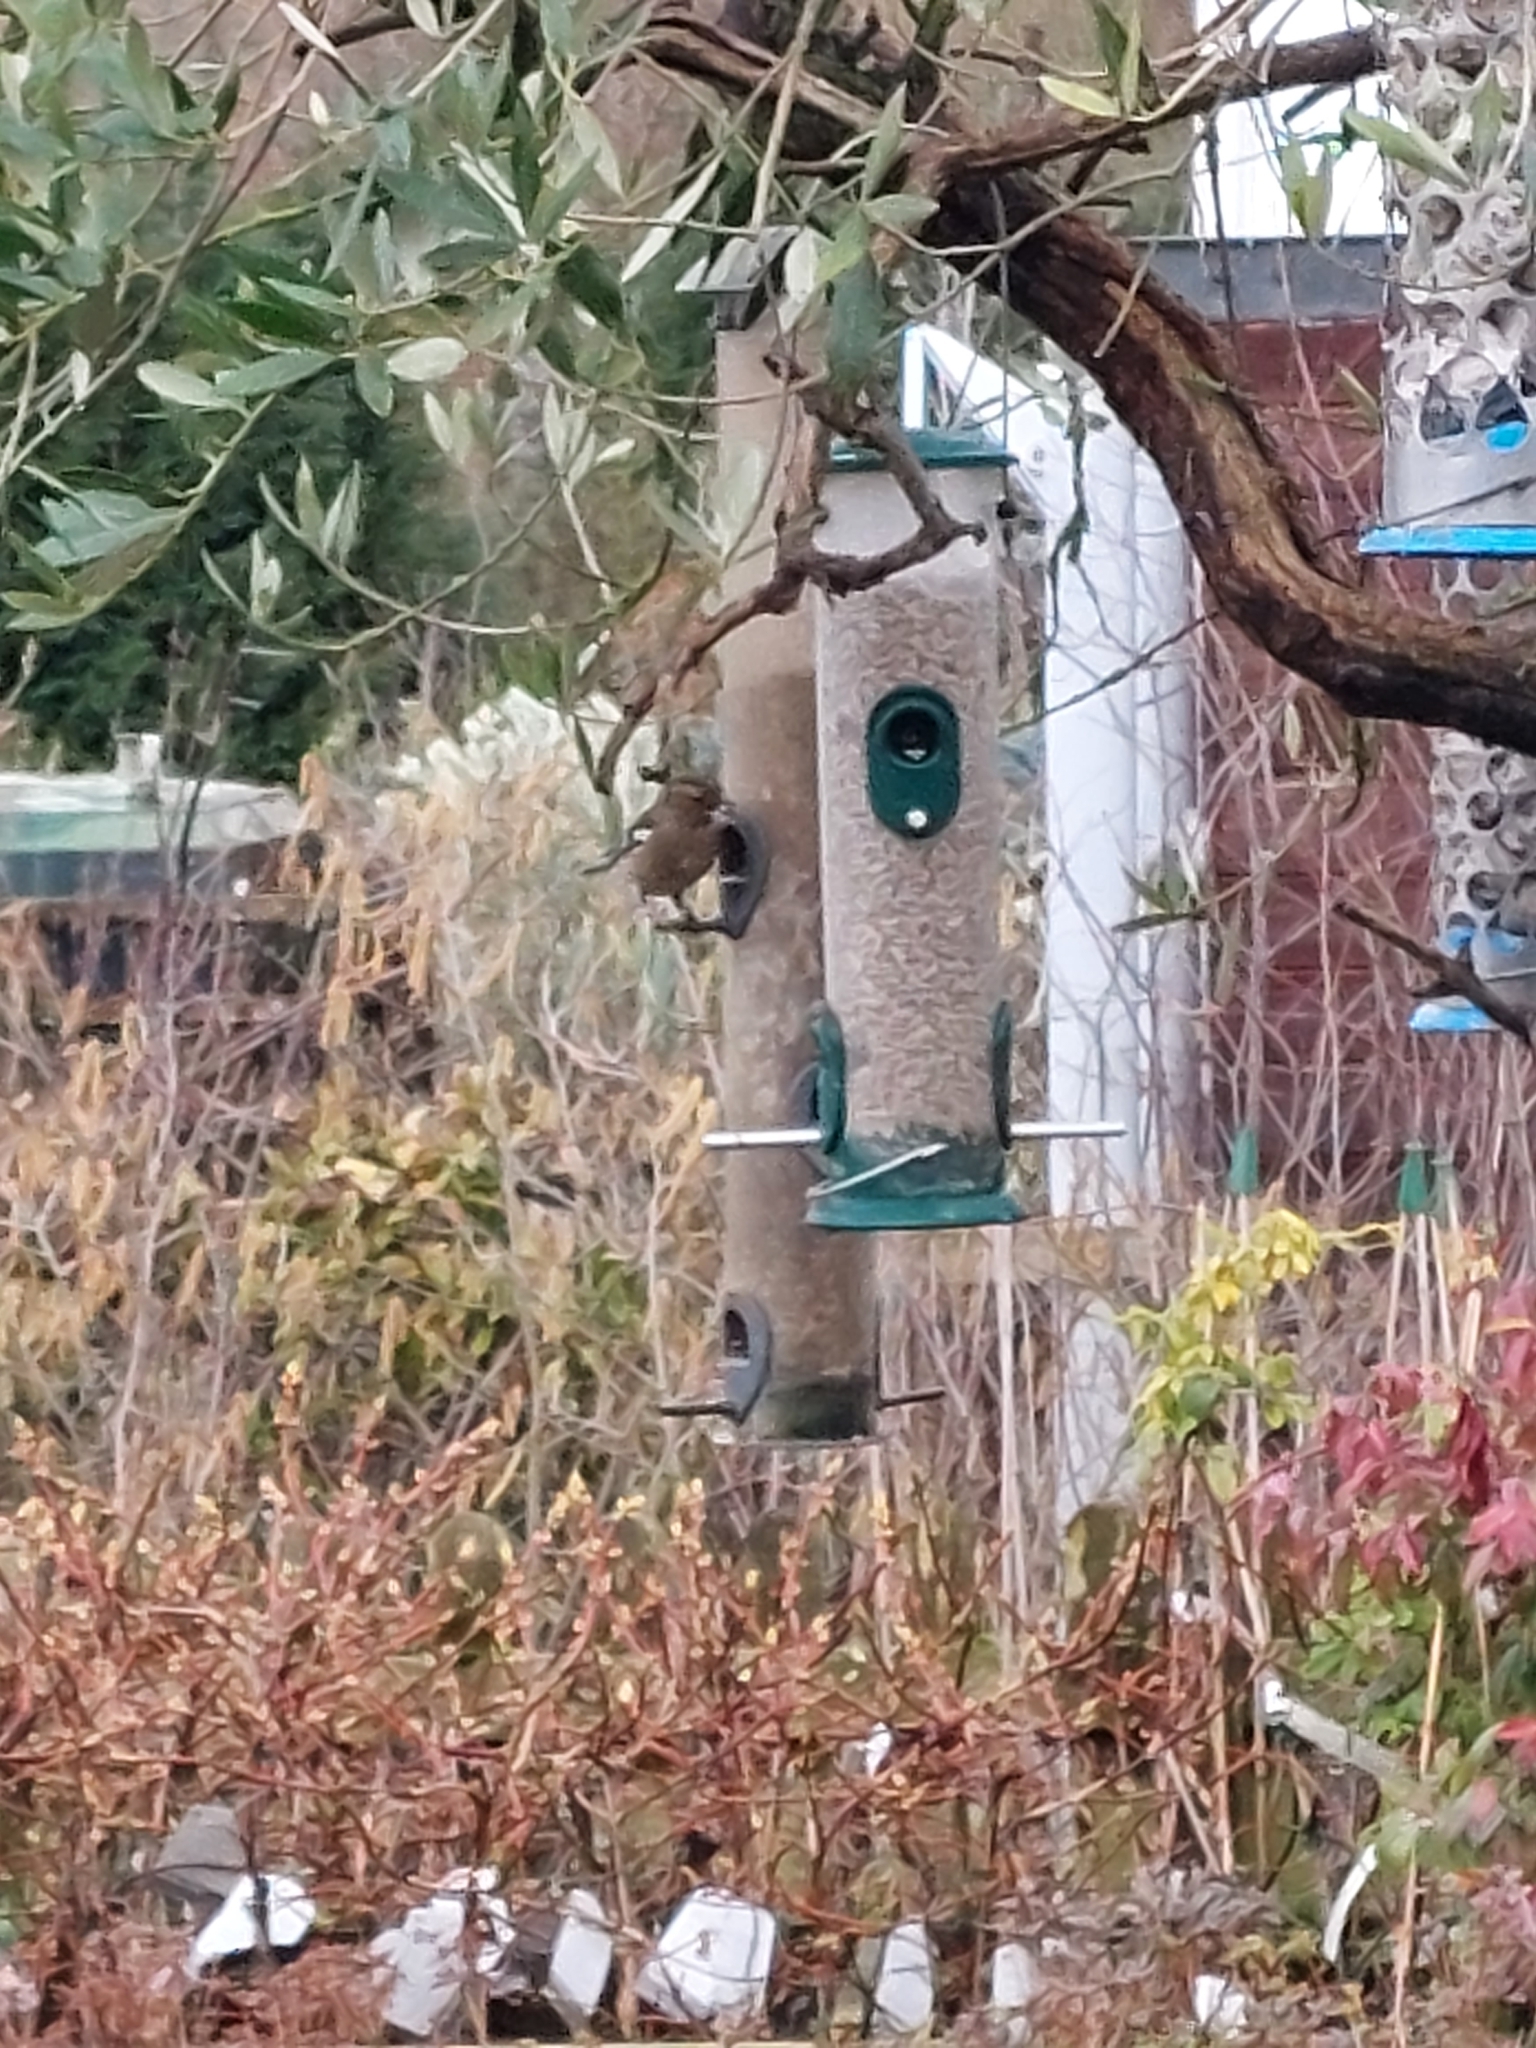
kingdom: Animalia
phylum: Chordata
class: Aves
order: Passeriformes
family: Fringillidae
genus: Fringilla
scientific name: Fringilla coelebs
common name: Common chaffinch
